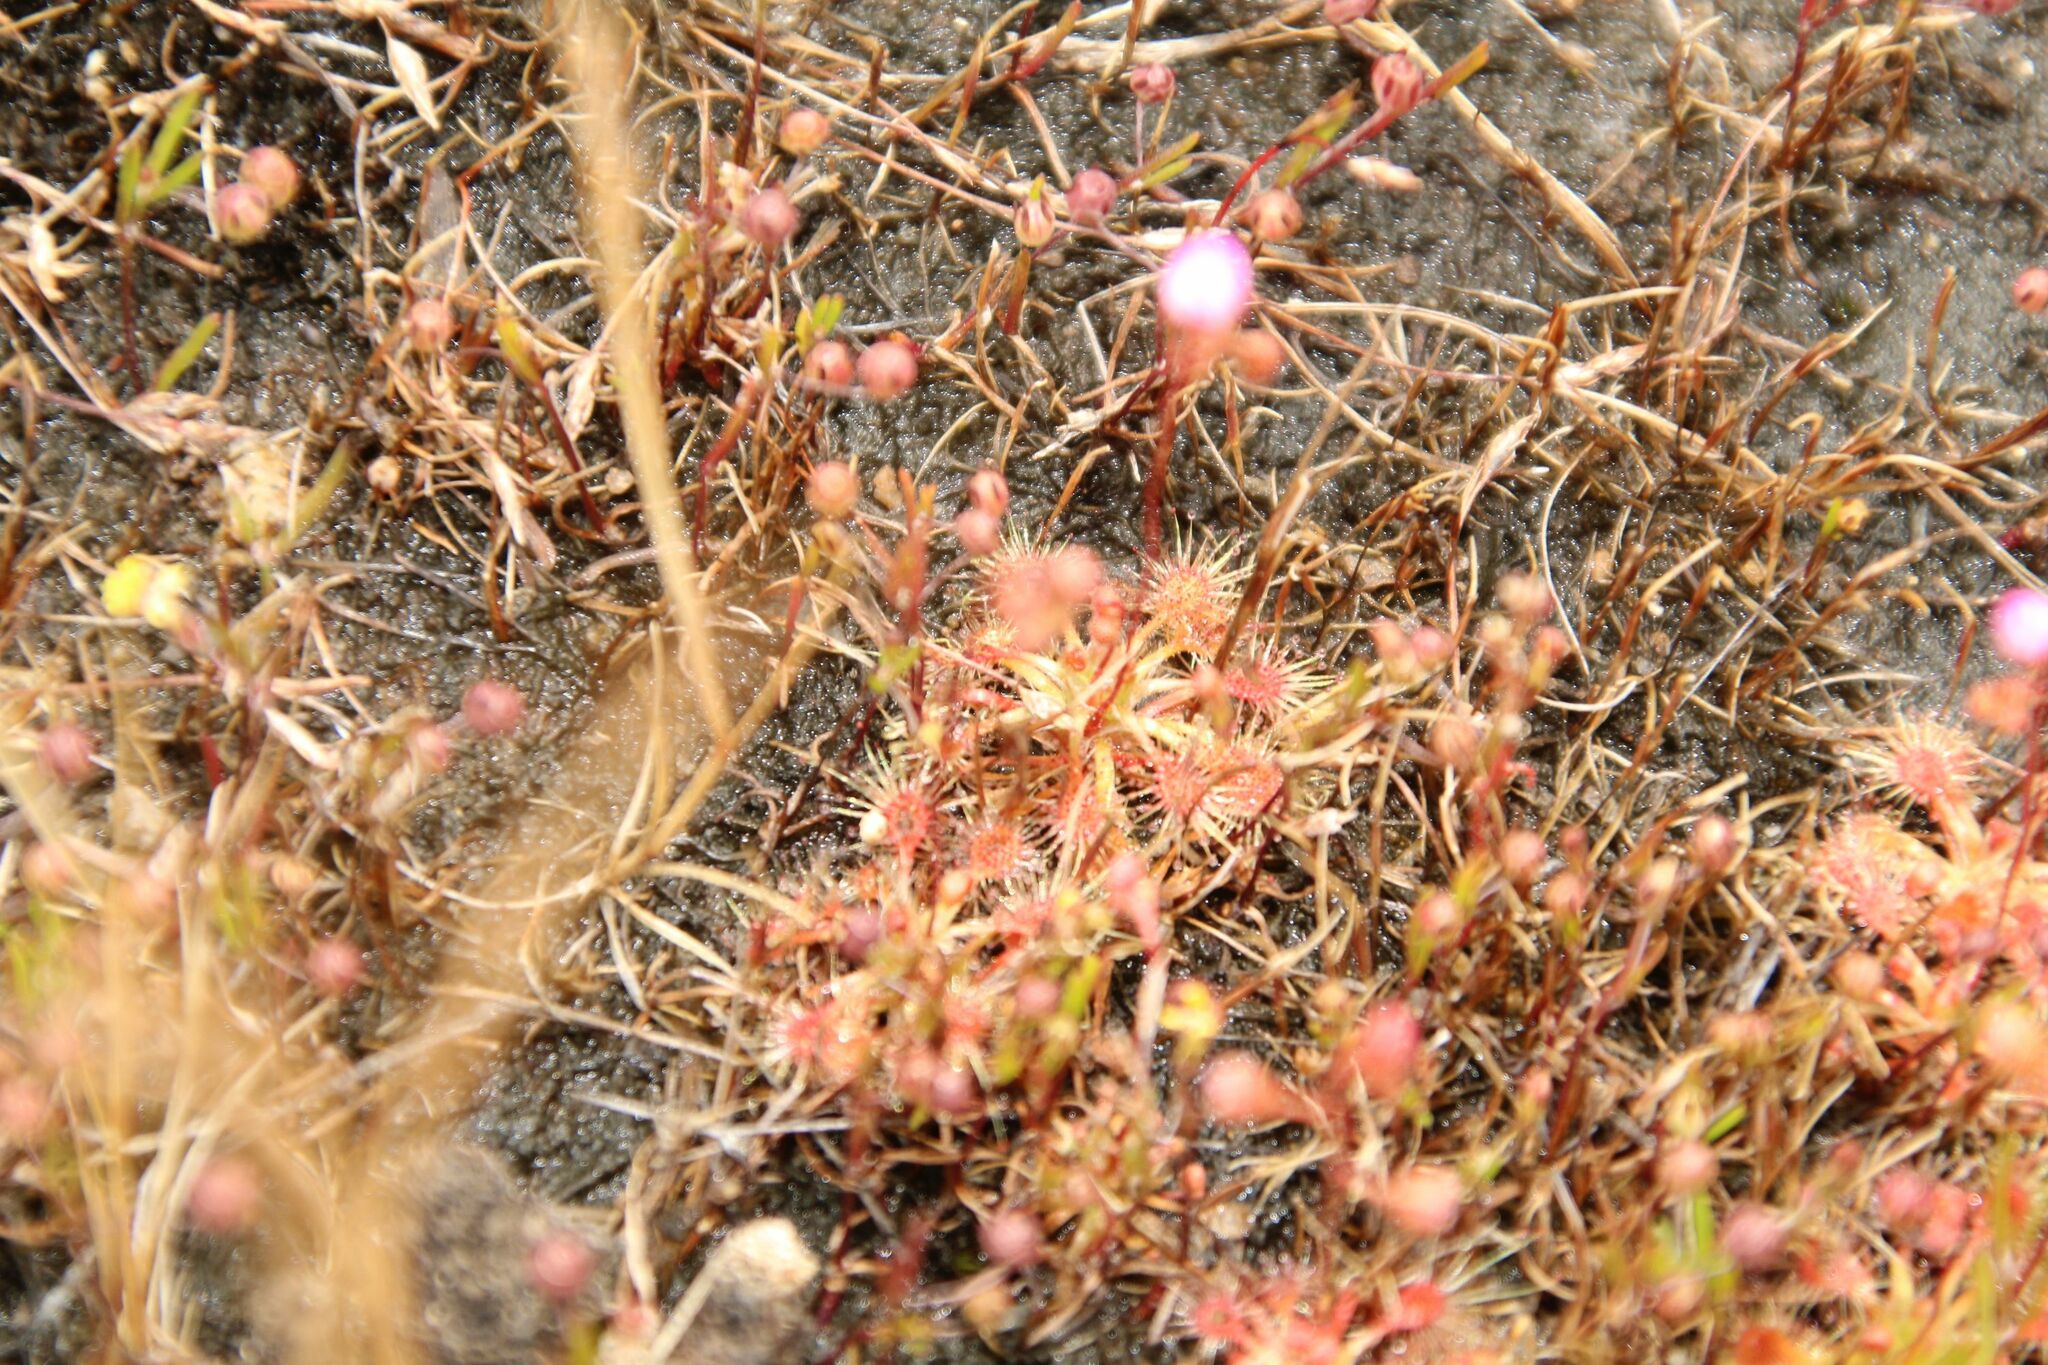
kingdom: Plantae
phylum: Tracheophyta
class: Magnoliopsida
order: Caryophyllales
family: Droseraceae
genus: Drosera
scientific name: Drosera nitidula
